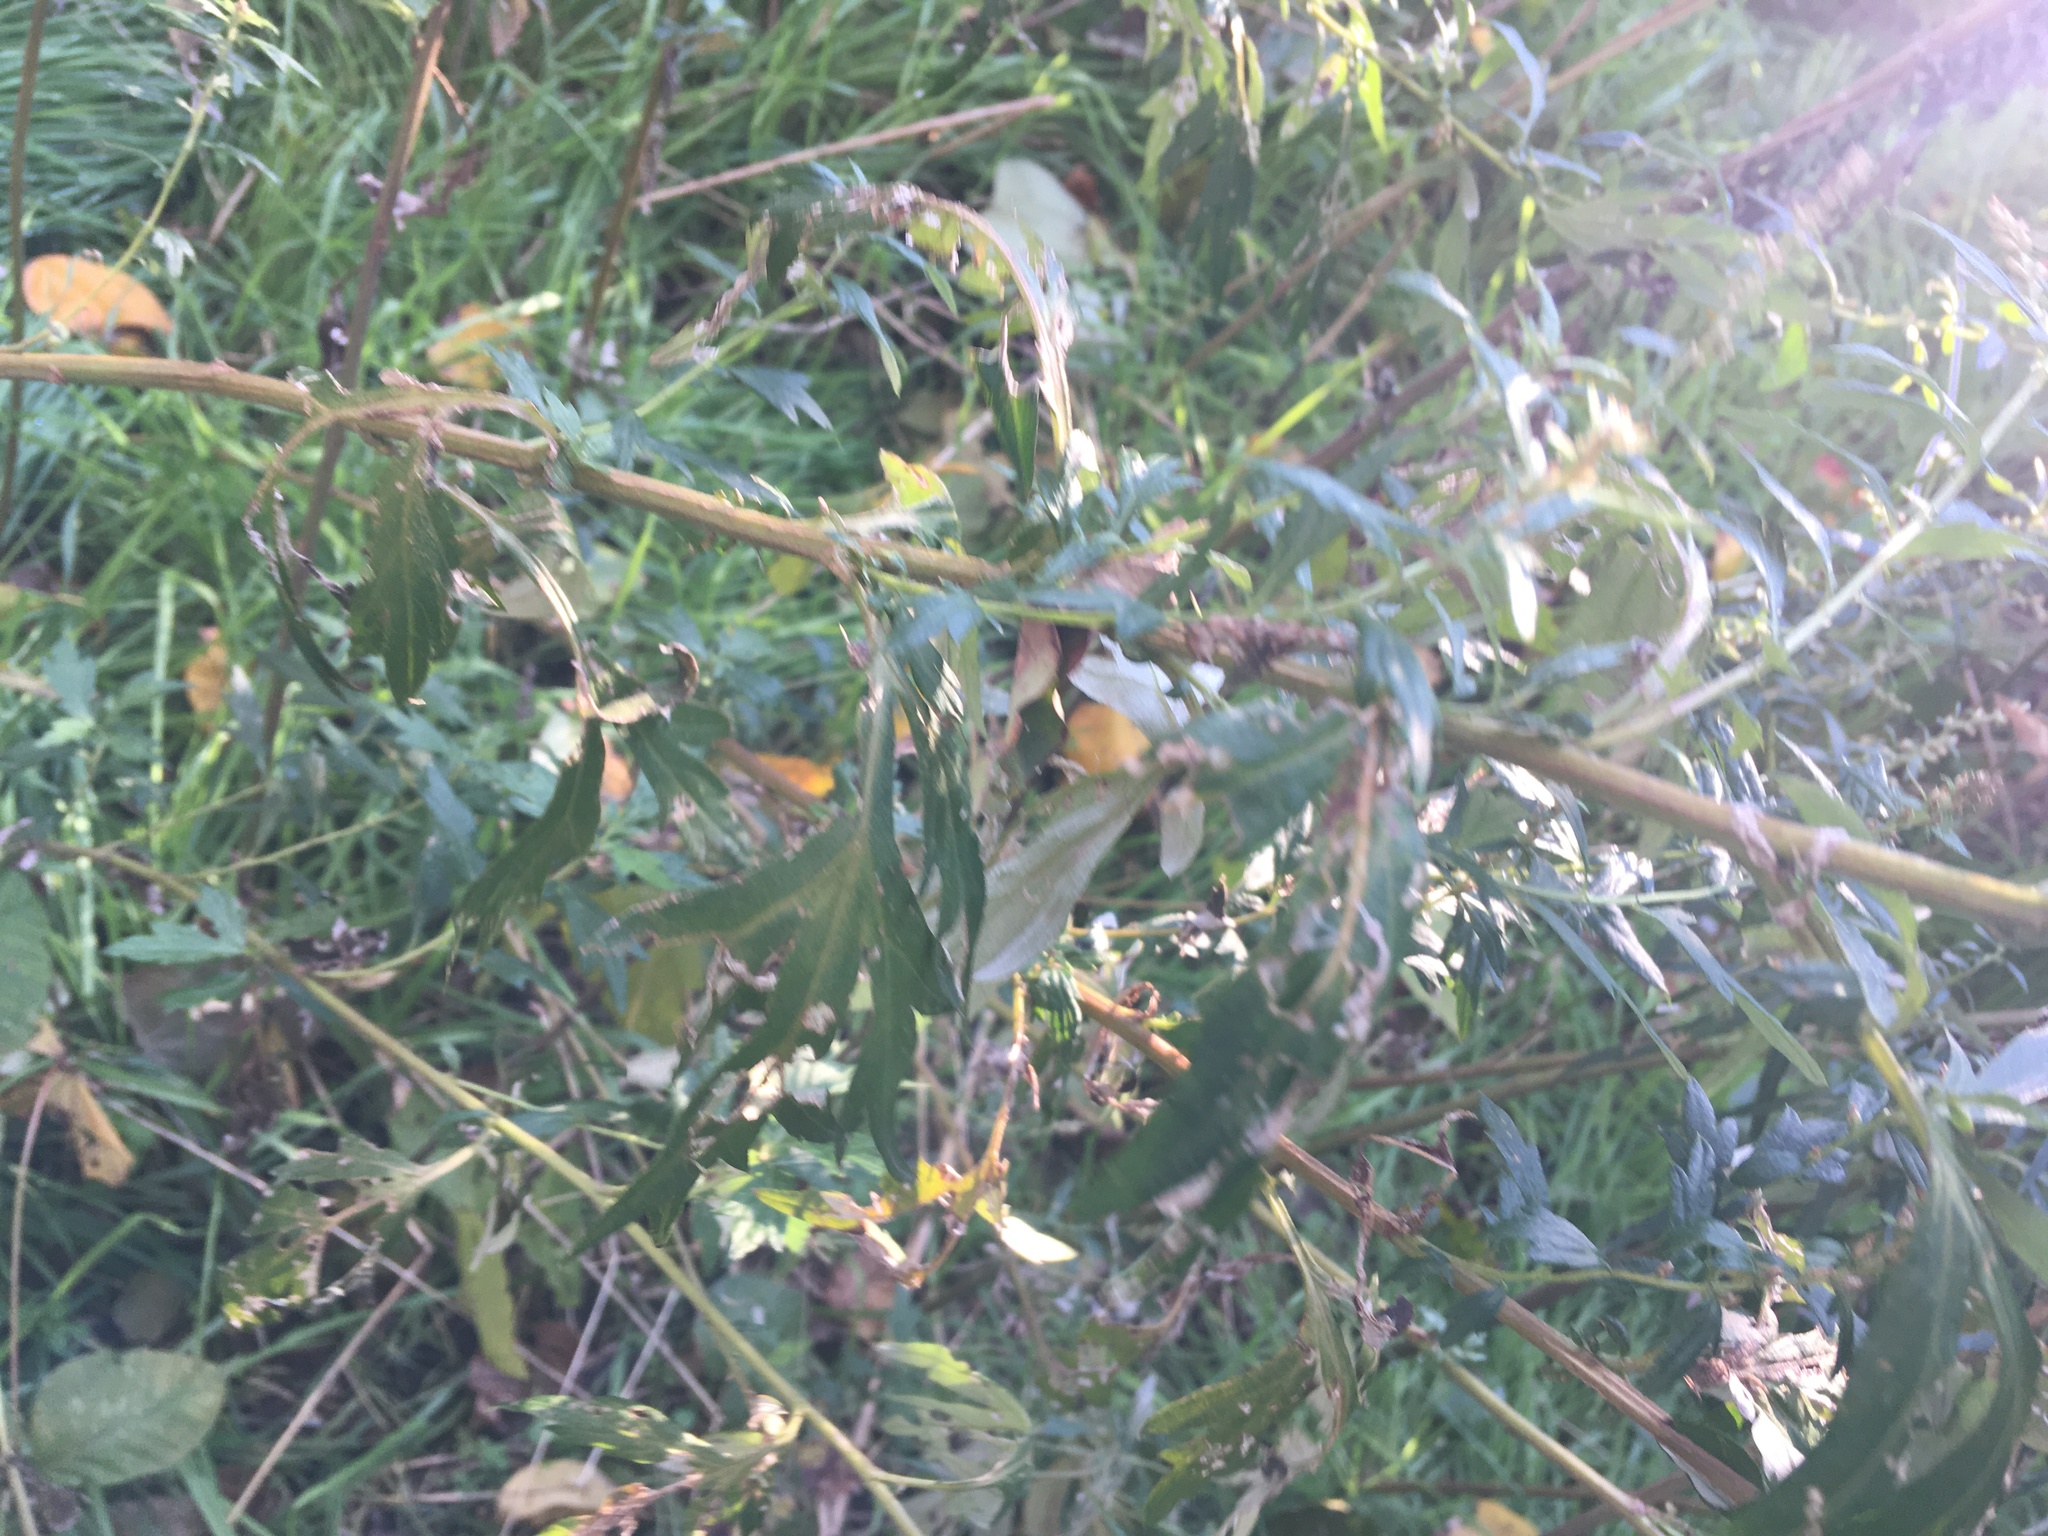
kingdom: Plantae
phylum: Tracheophyta
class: Magnoliopsida
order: Asterales
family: Asteraceae
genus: Artemisia
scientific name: Artemisia vulgaris
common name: Mugwort
